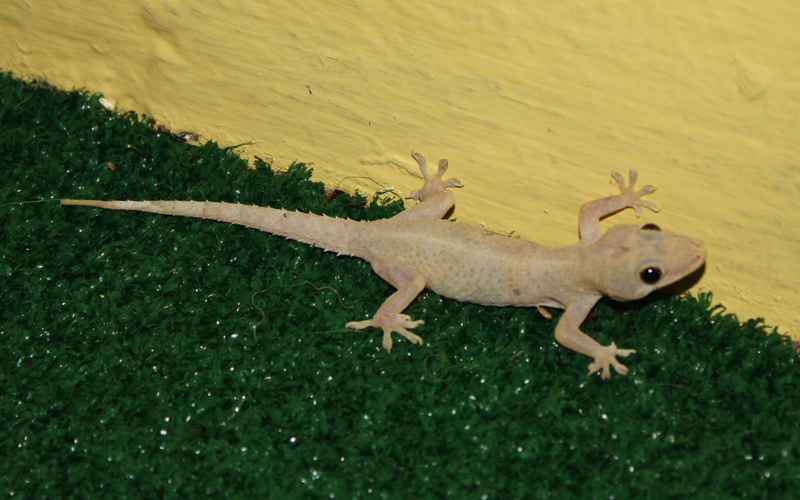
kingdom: Animalia
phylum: Chordata
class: Squamata
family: Gekkonidae
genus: Hemidactylus
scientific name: Hemidactylus mabouia
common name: House gecko
